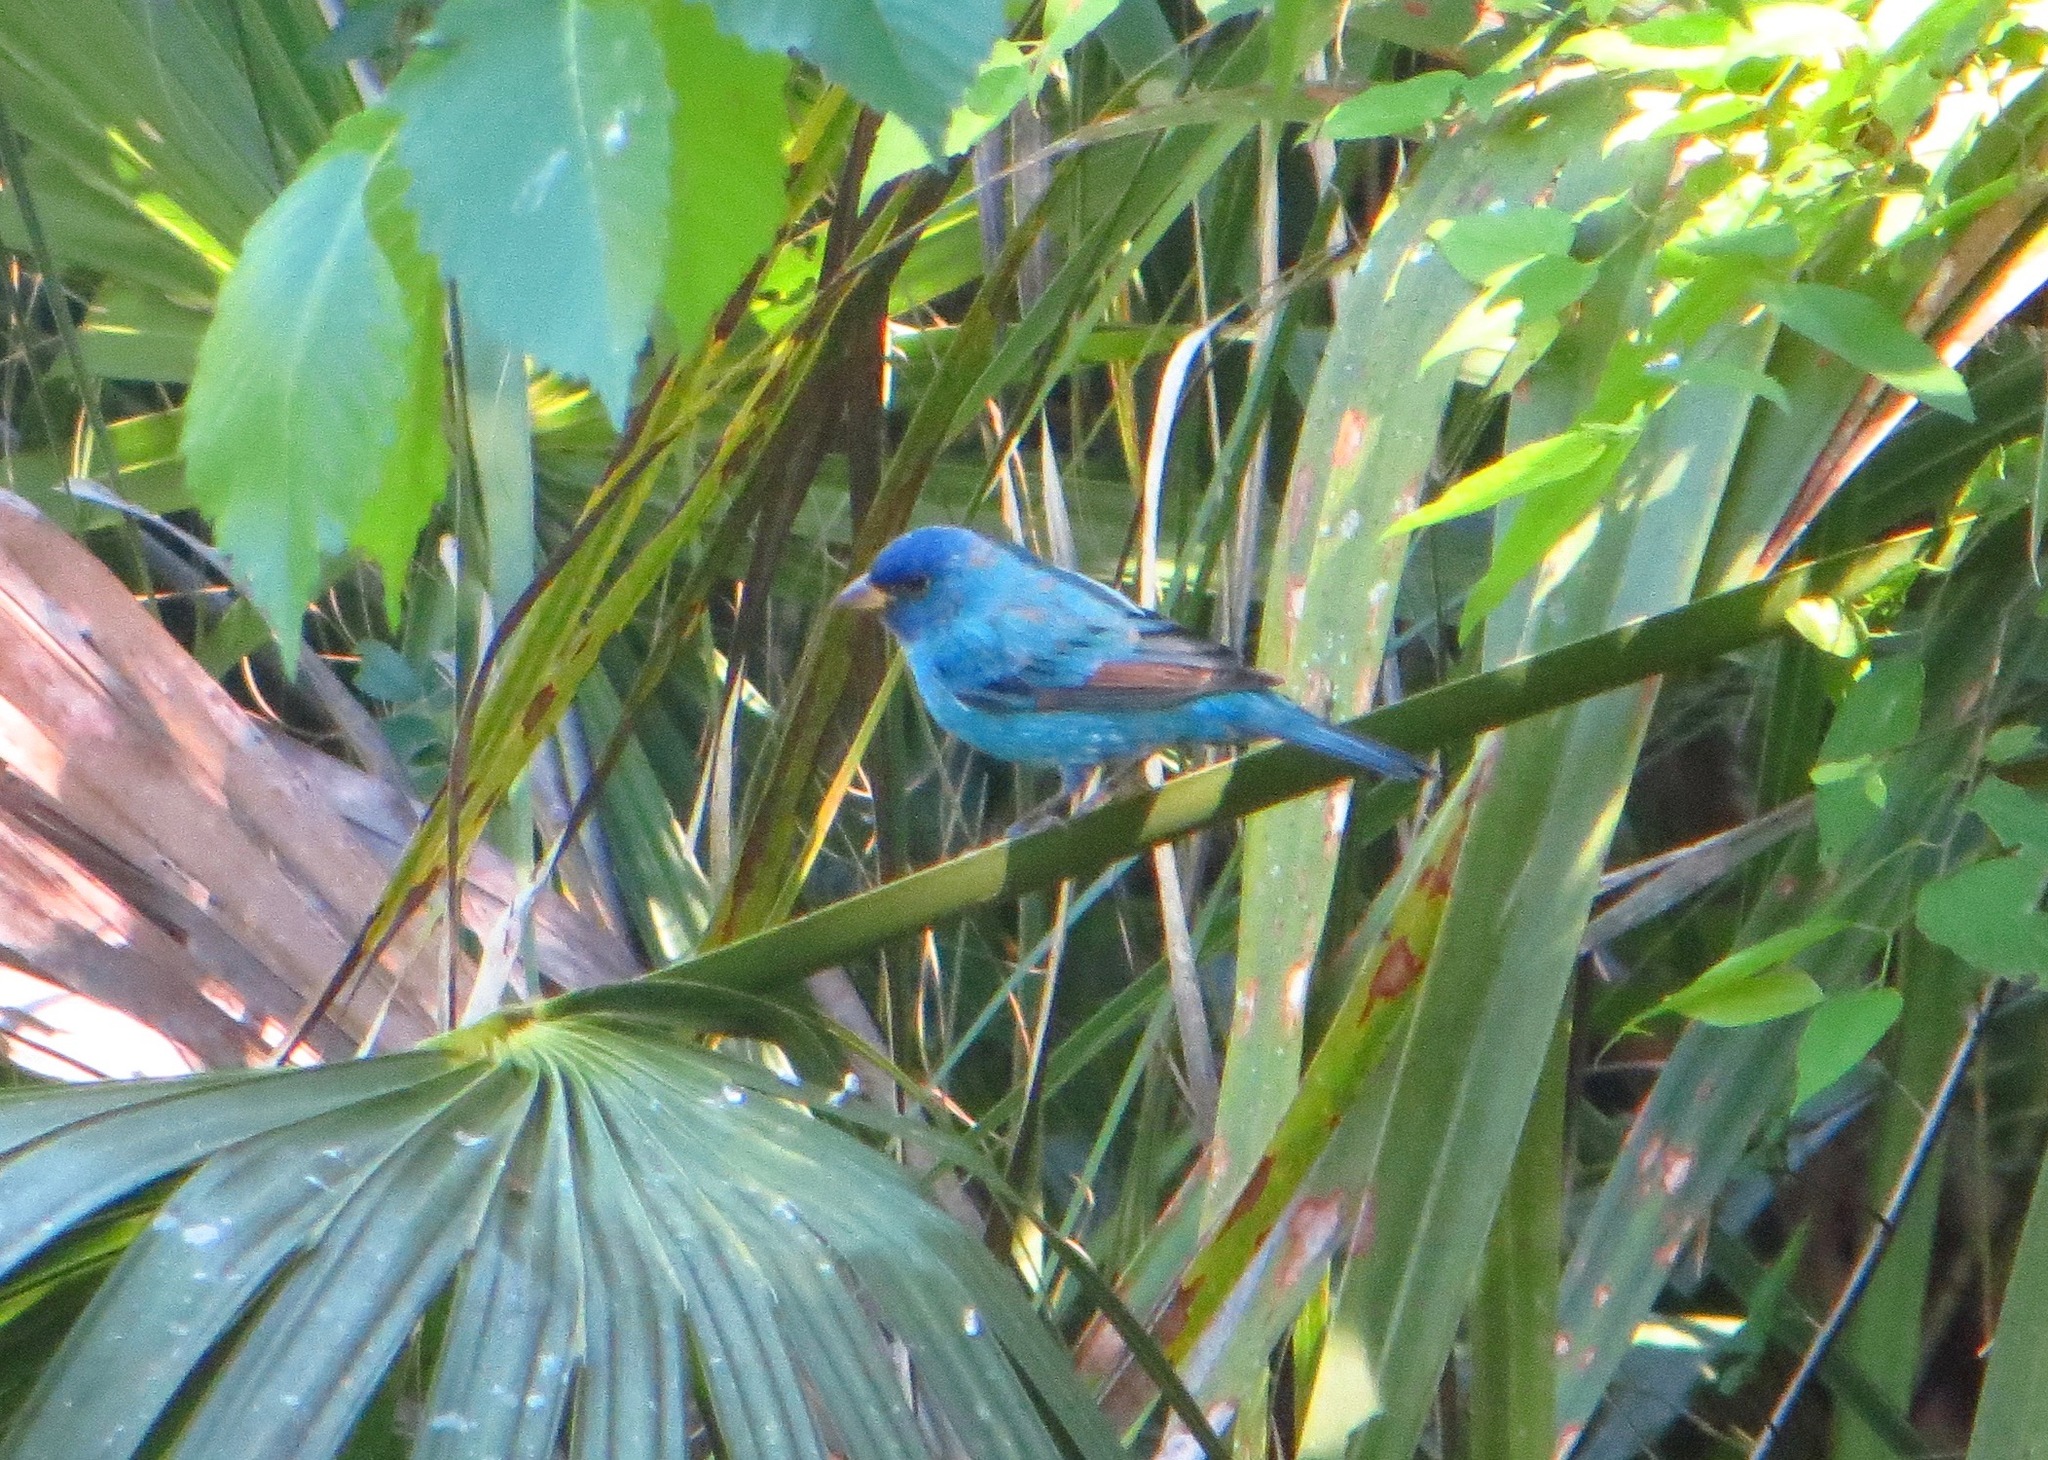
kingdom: Animalia
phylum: Chordata
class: Aves
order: Passeriformes
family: Cardinalidae
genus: Passerina
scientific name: Passerina cyanea
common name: Indigo bunting
